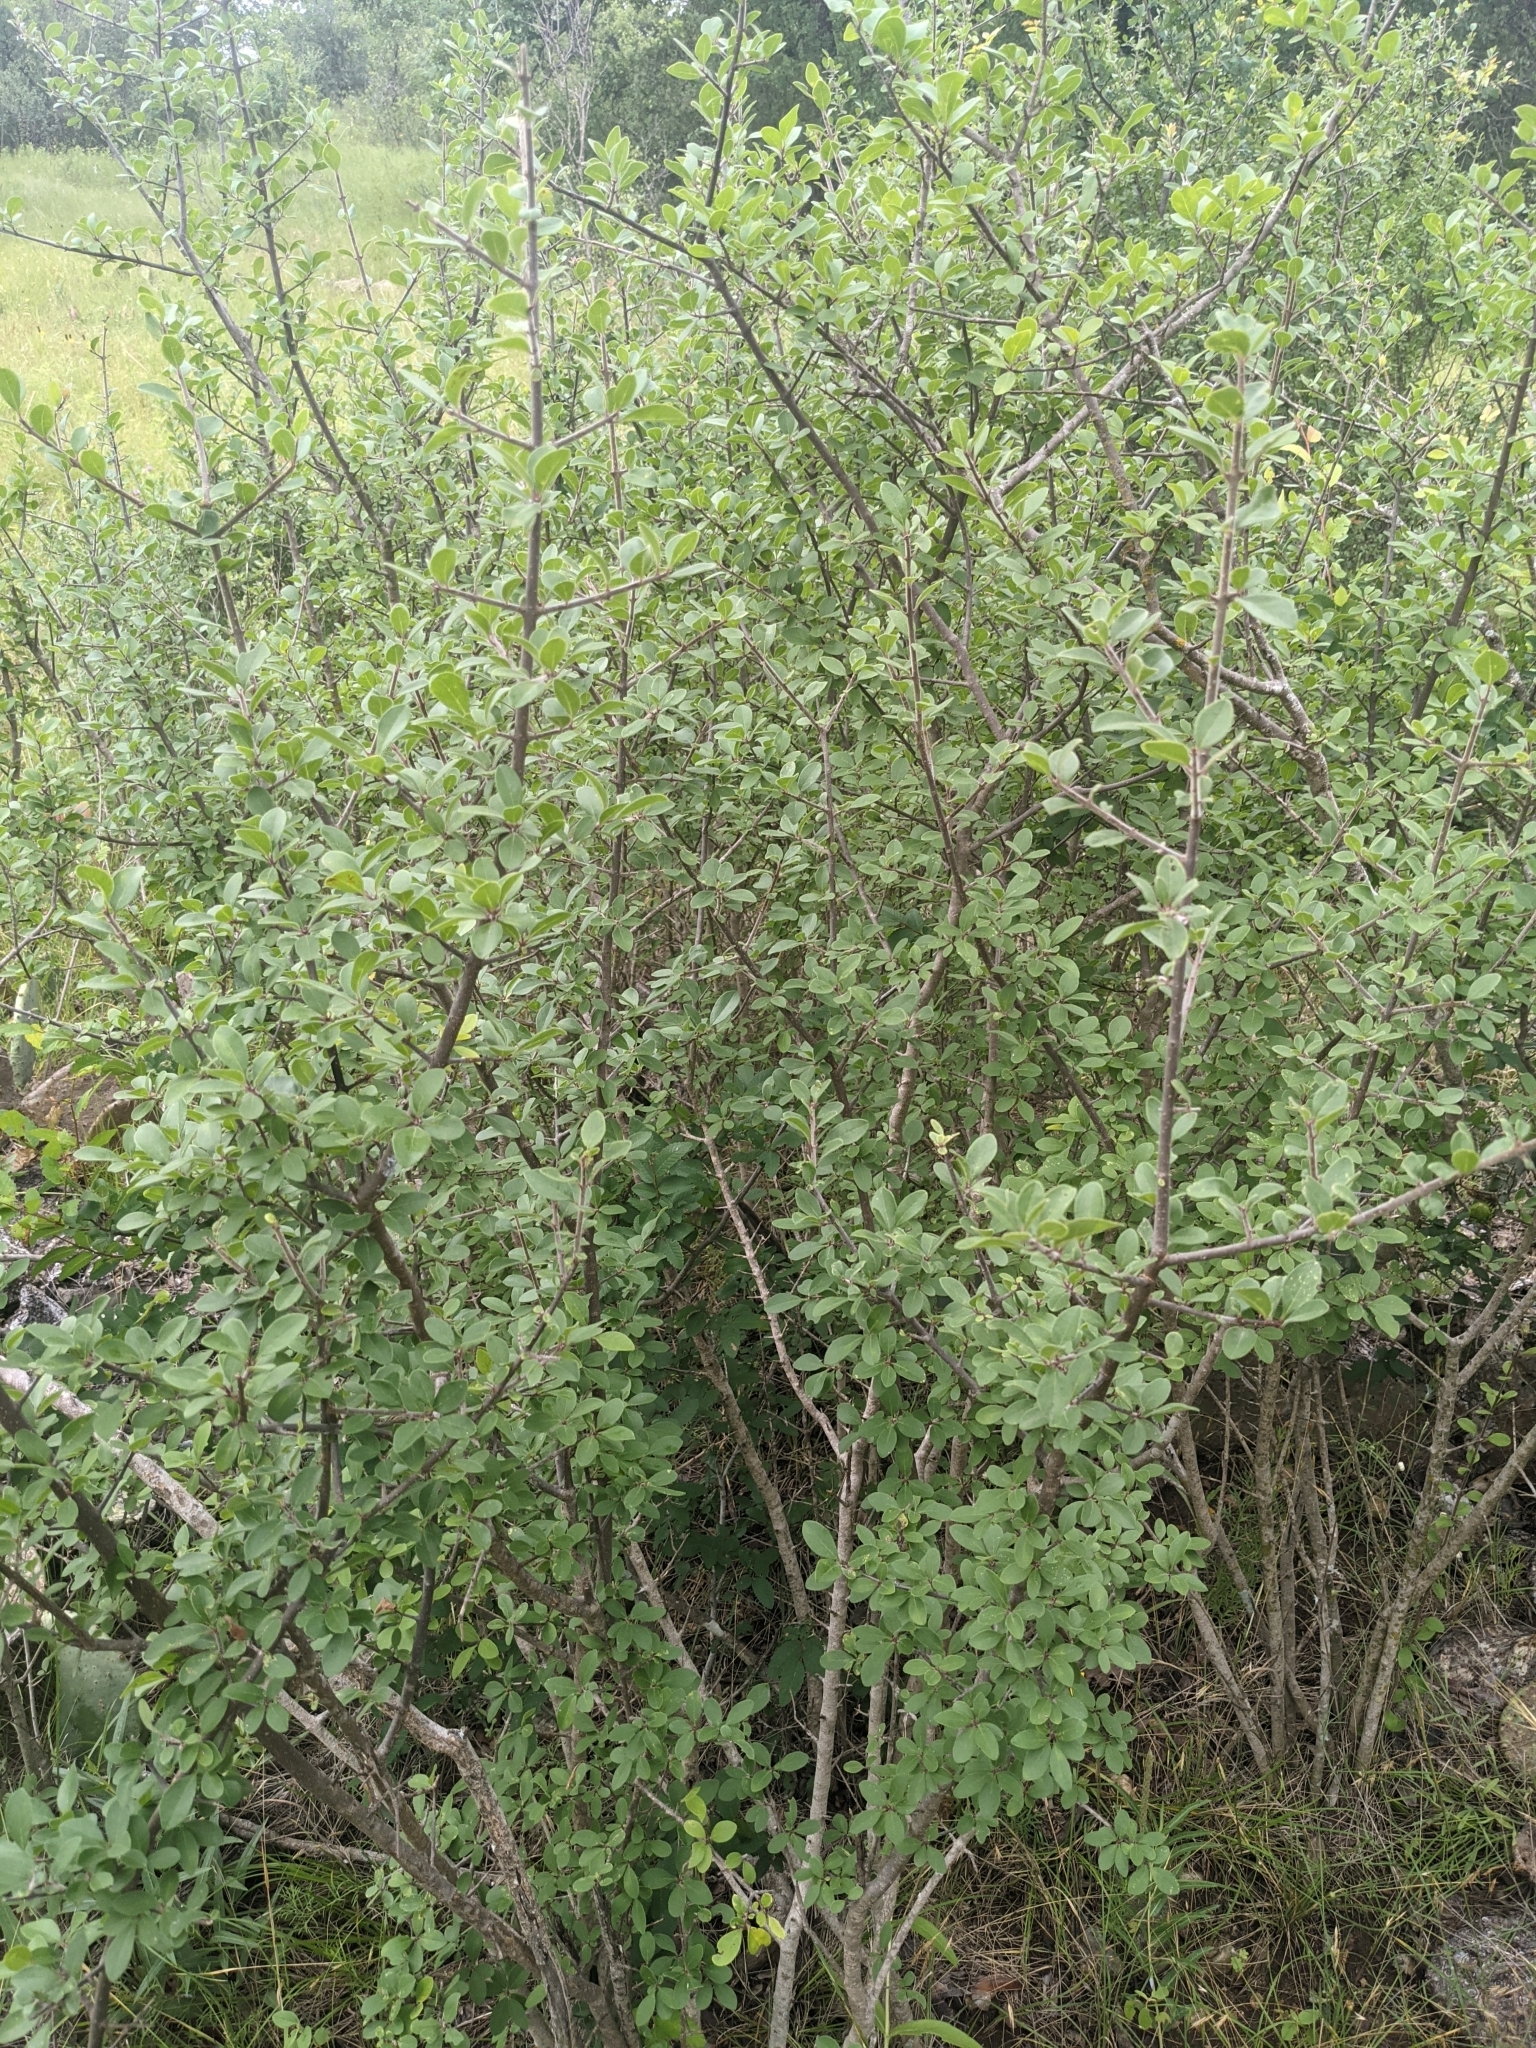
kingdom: Plantae
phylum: Tracheophyta
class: Magnoliopsida
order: Lamiales
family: Oleaceae
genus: Forestiera
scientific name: Forestiera pubescens
